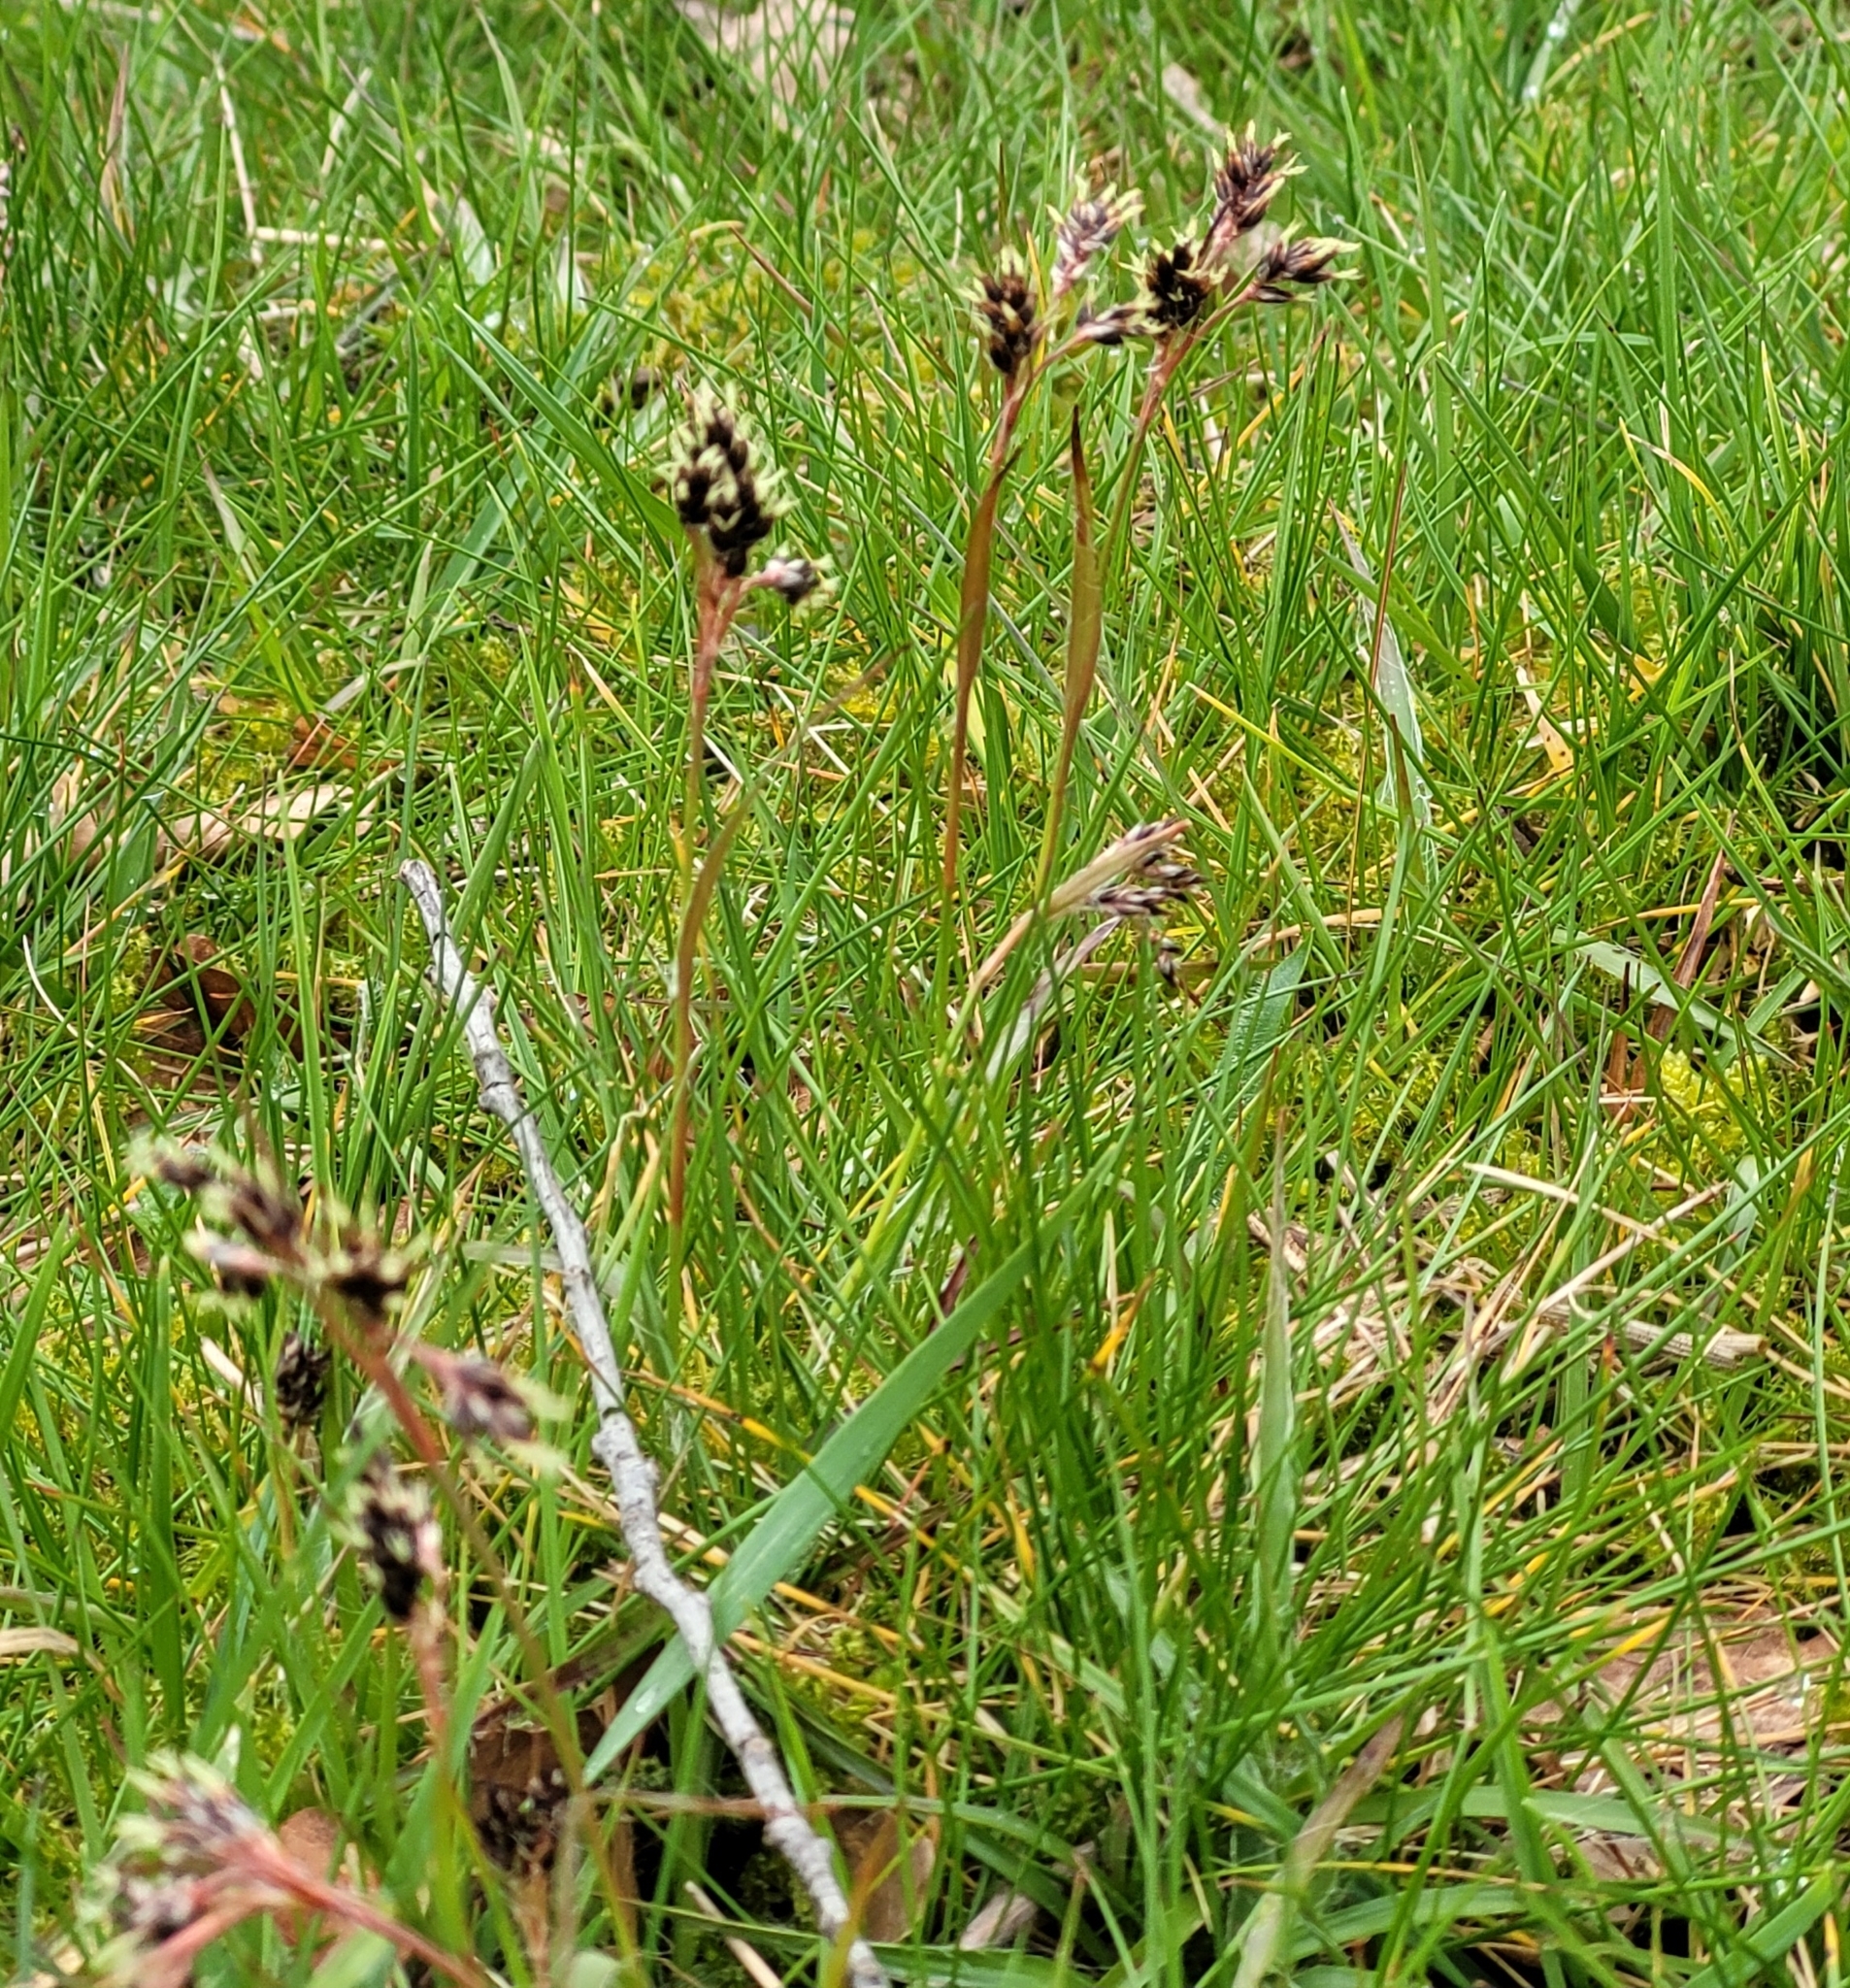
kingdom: Plantae
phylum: Tracheophyta
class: Liliopsida
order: Poales
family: Juncaceae
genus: Luzula
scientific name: Luzula campestris
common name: Field wood-rush
